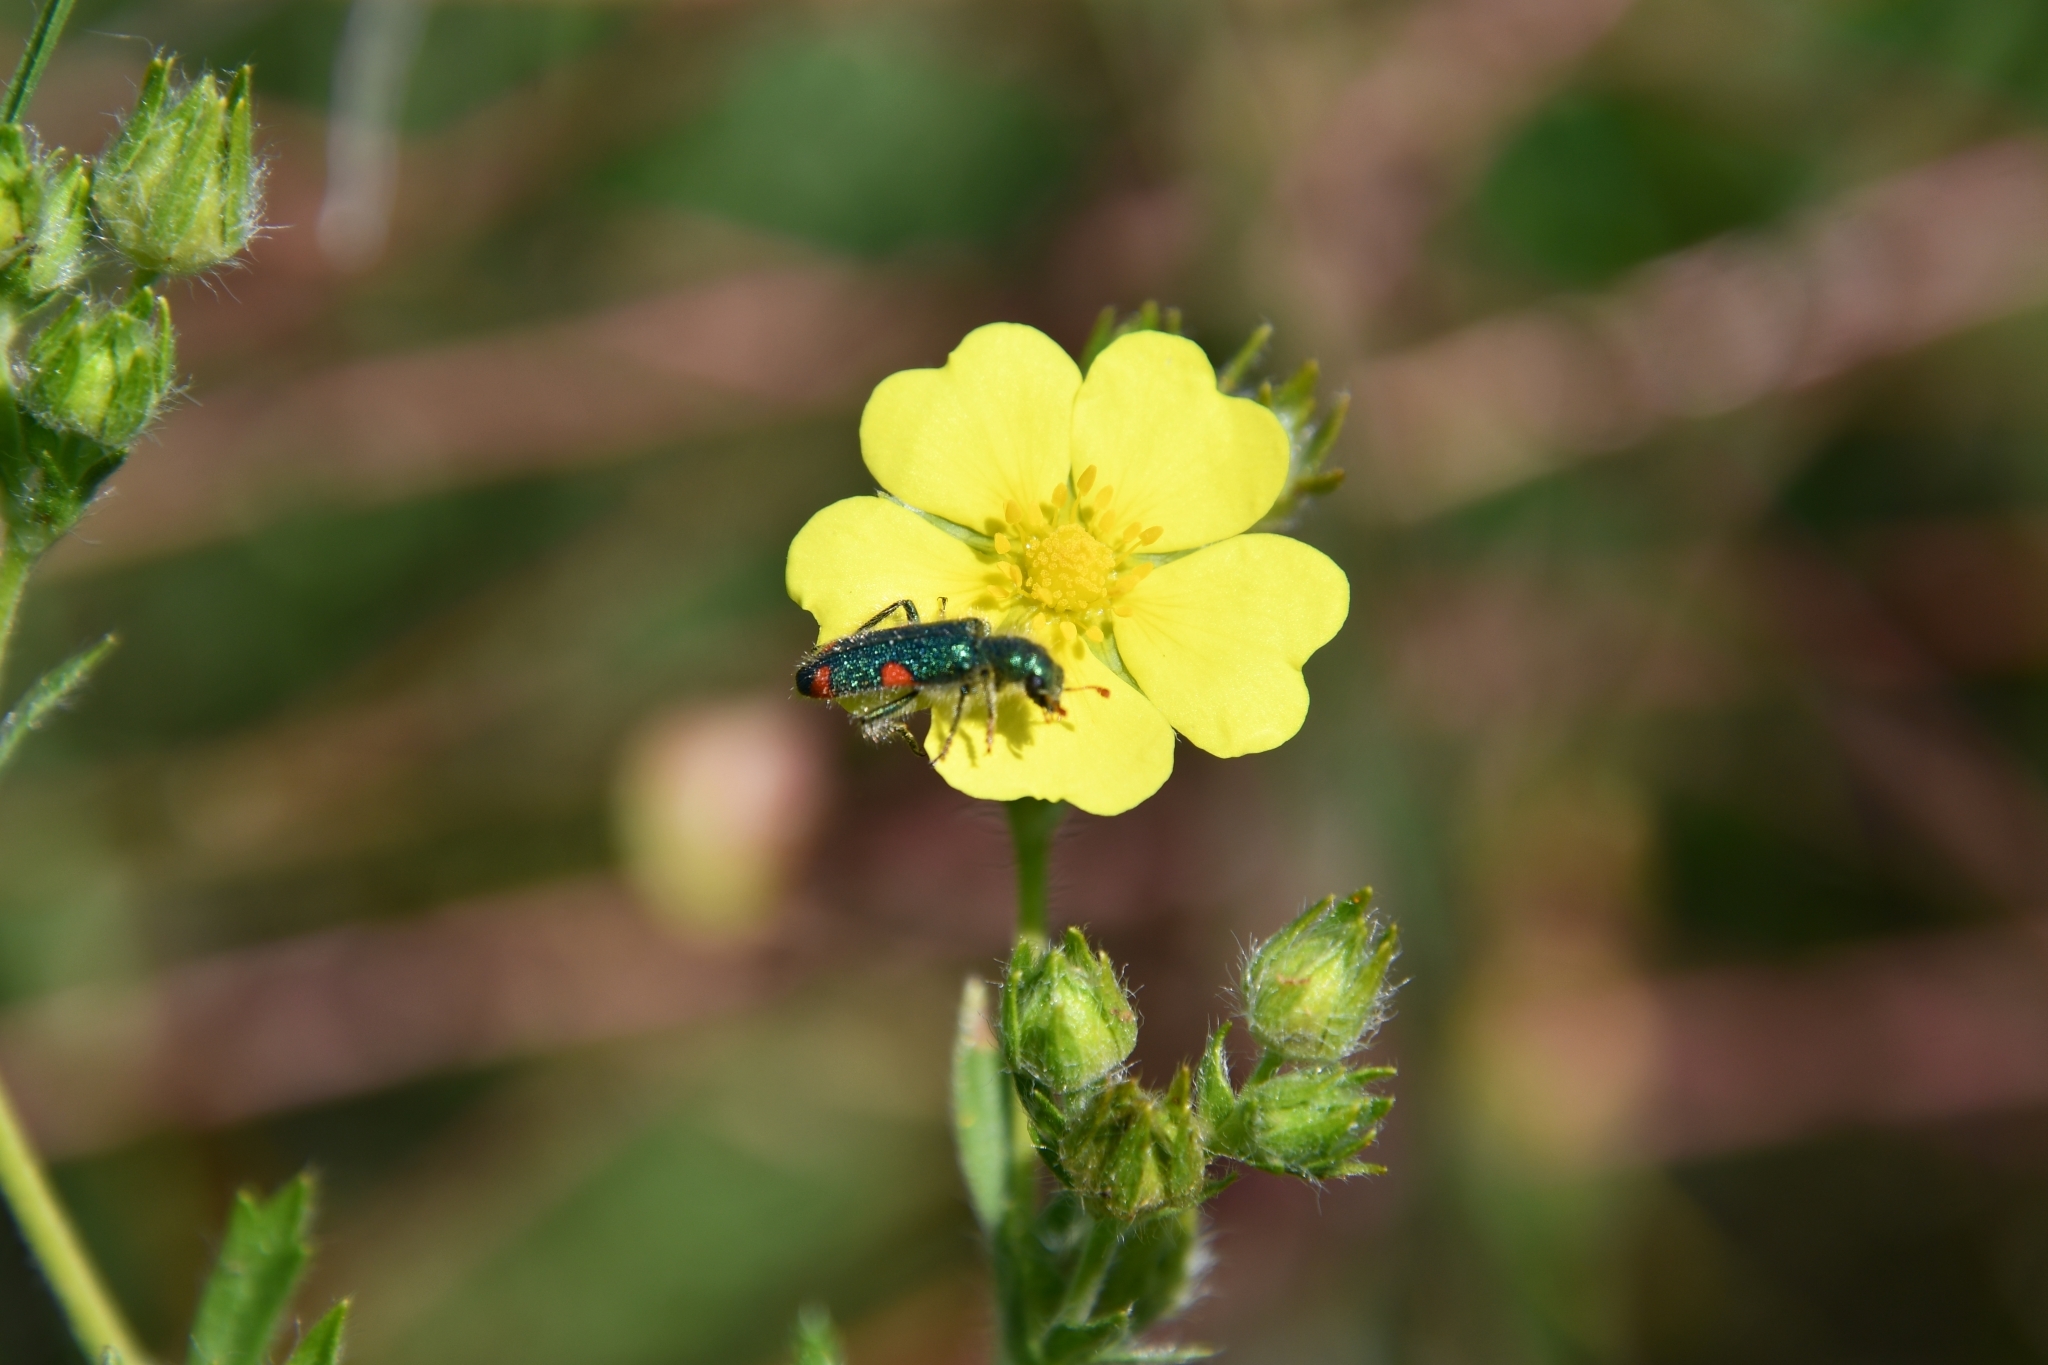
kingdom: Animalia
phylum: Arthropoda
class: Insecta
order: Coleoptera
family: Cleridae
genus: Trichodes
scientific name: Trichodes quadriguttatus
